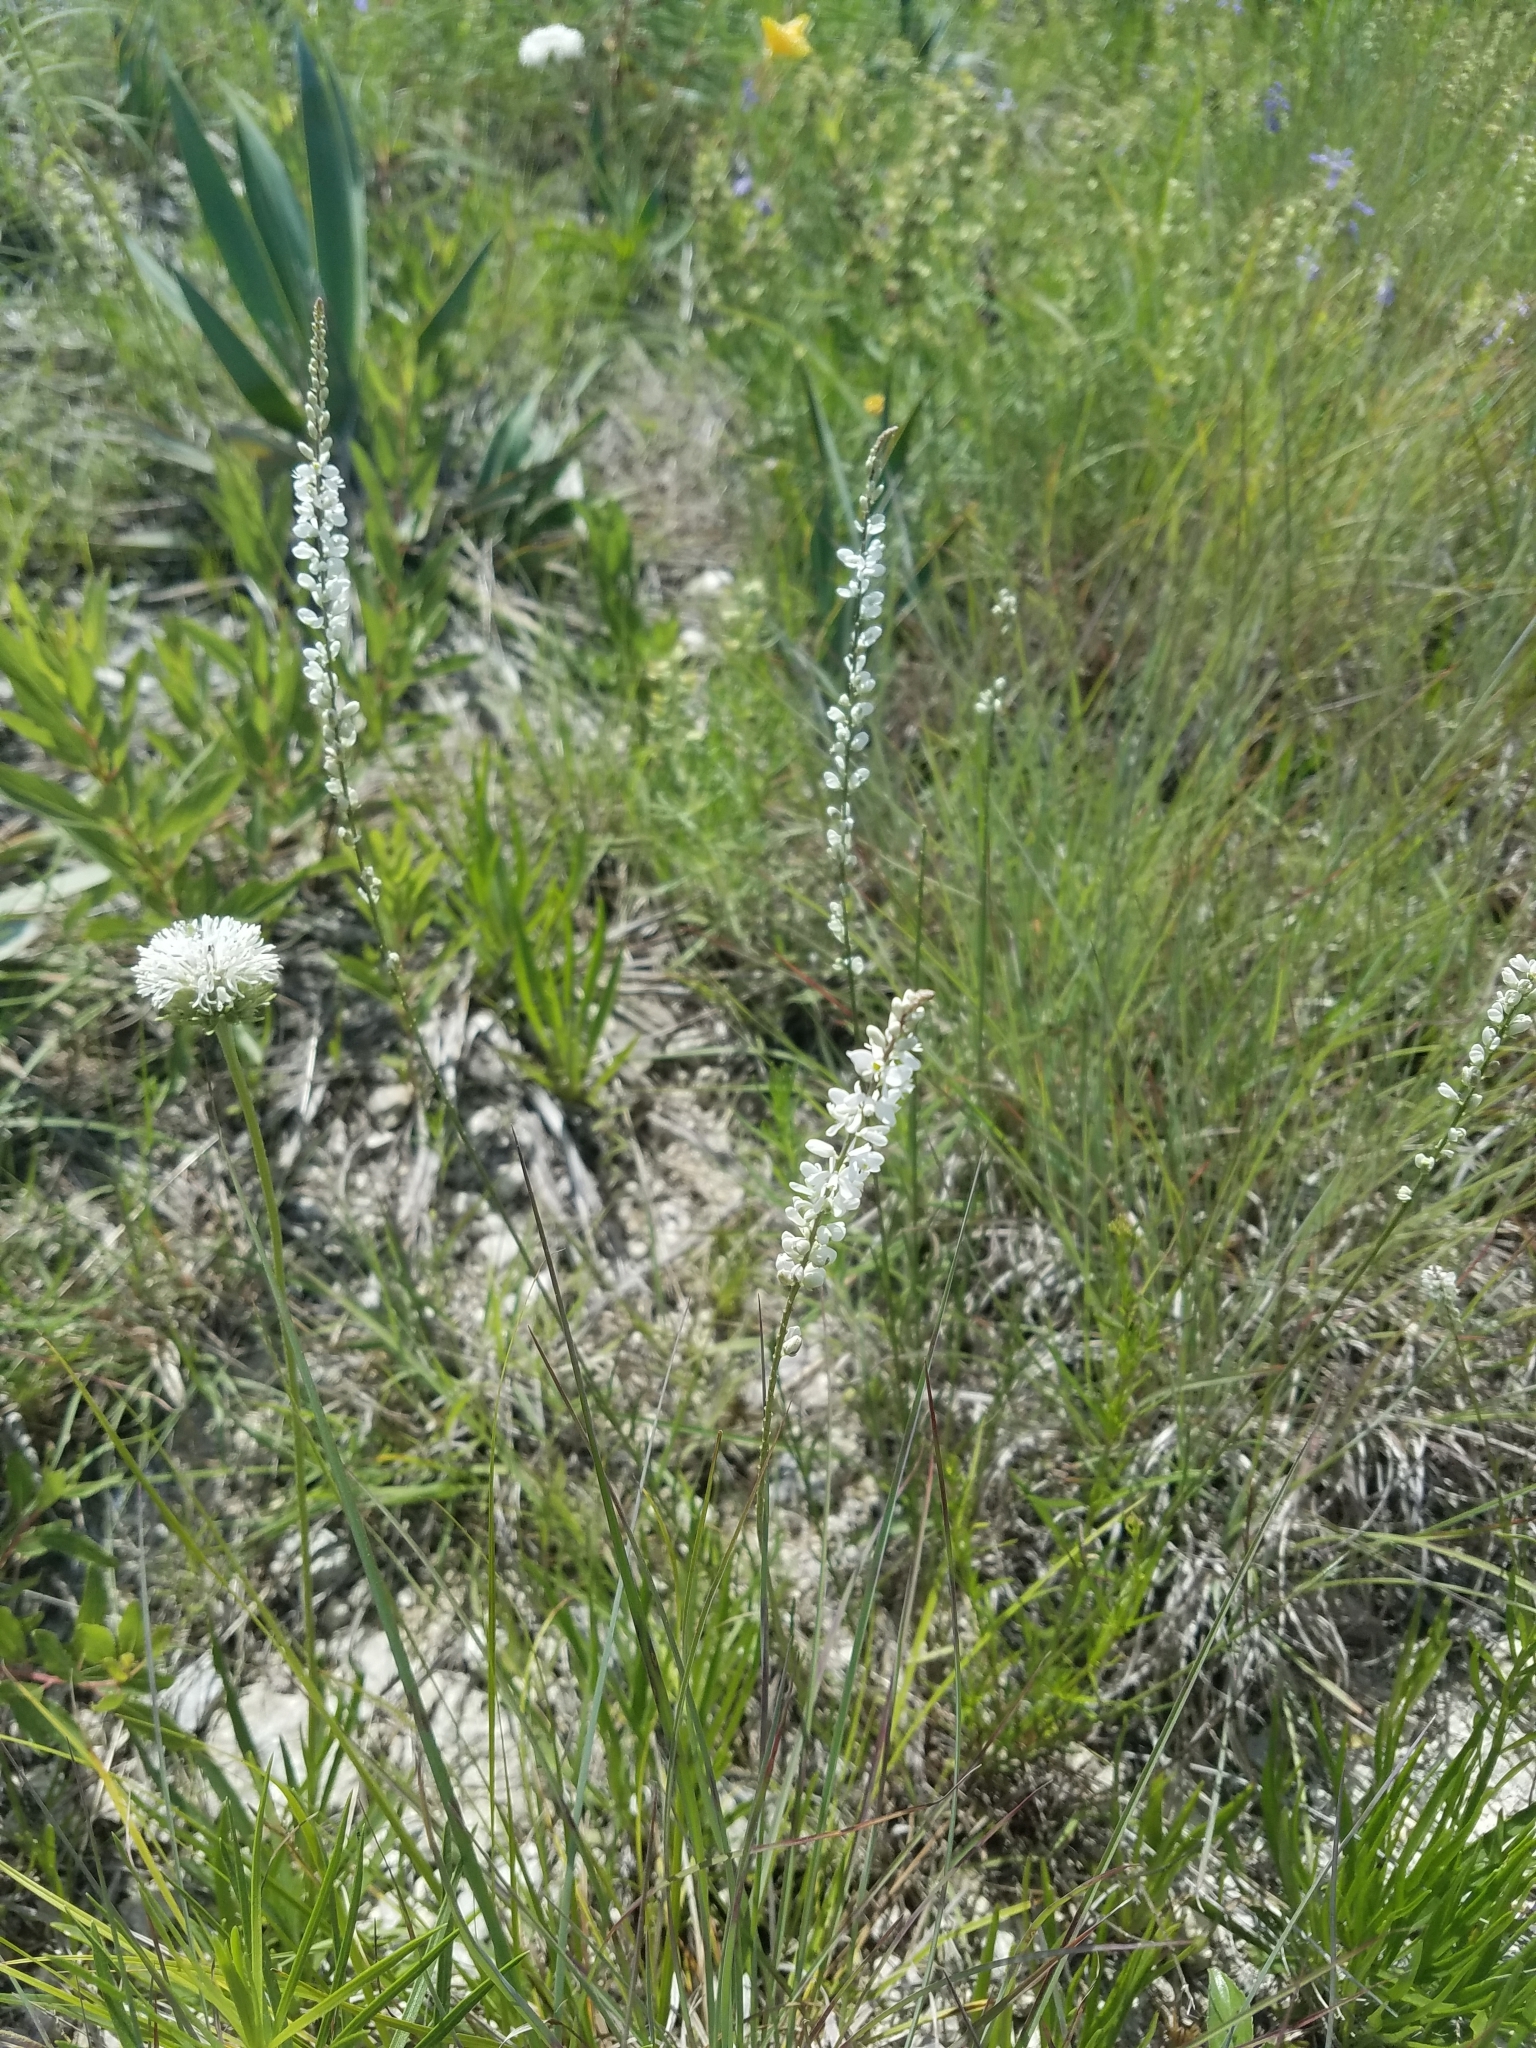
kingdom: Plantae
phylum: Tracheophyta
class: Magnoliopsida
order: Fabales
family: Polygalaceae
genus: Polygala
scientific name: Polygala alba
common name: White milkwort
